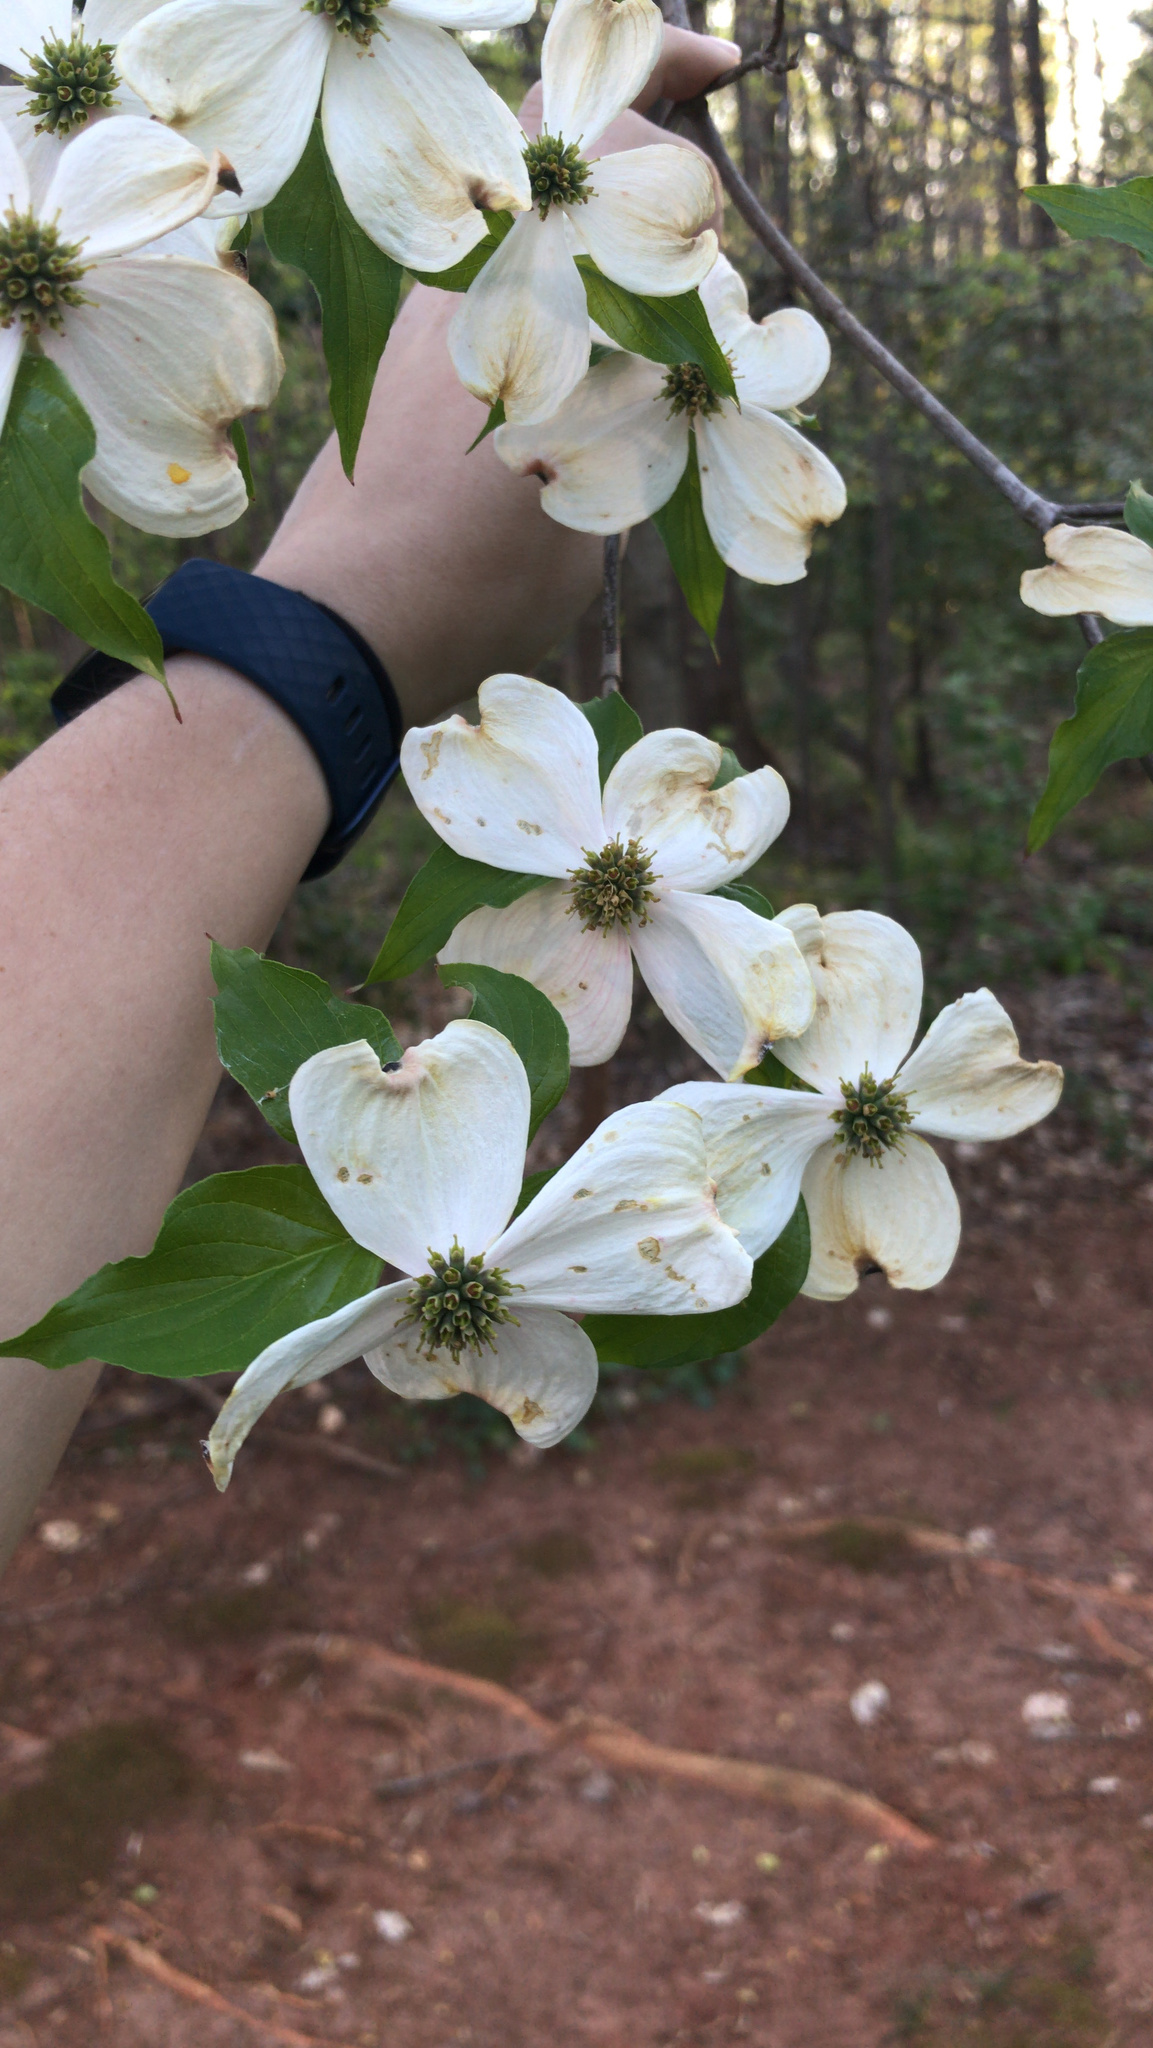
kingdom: Plantae
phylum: Tracheophyta
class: Magnoliopsida
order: Cornales
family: Cornaceae
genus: Cornus
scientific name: Cornus florida
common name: Flowering dogwood
